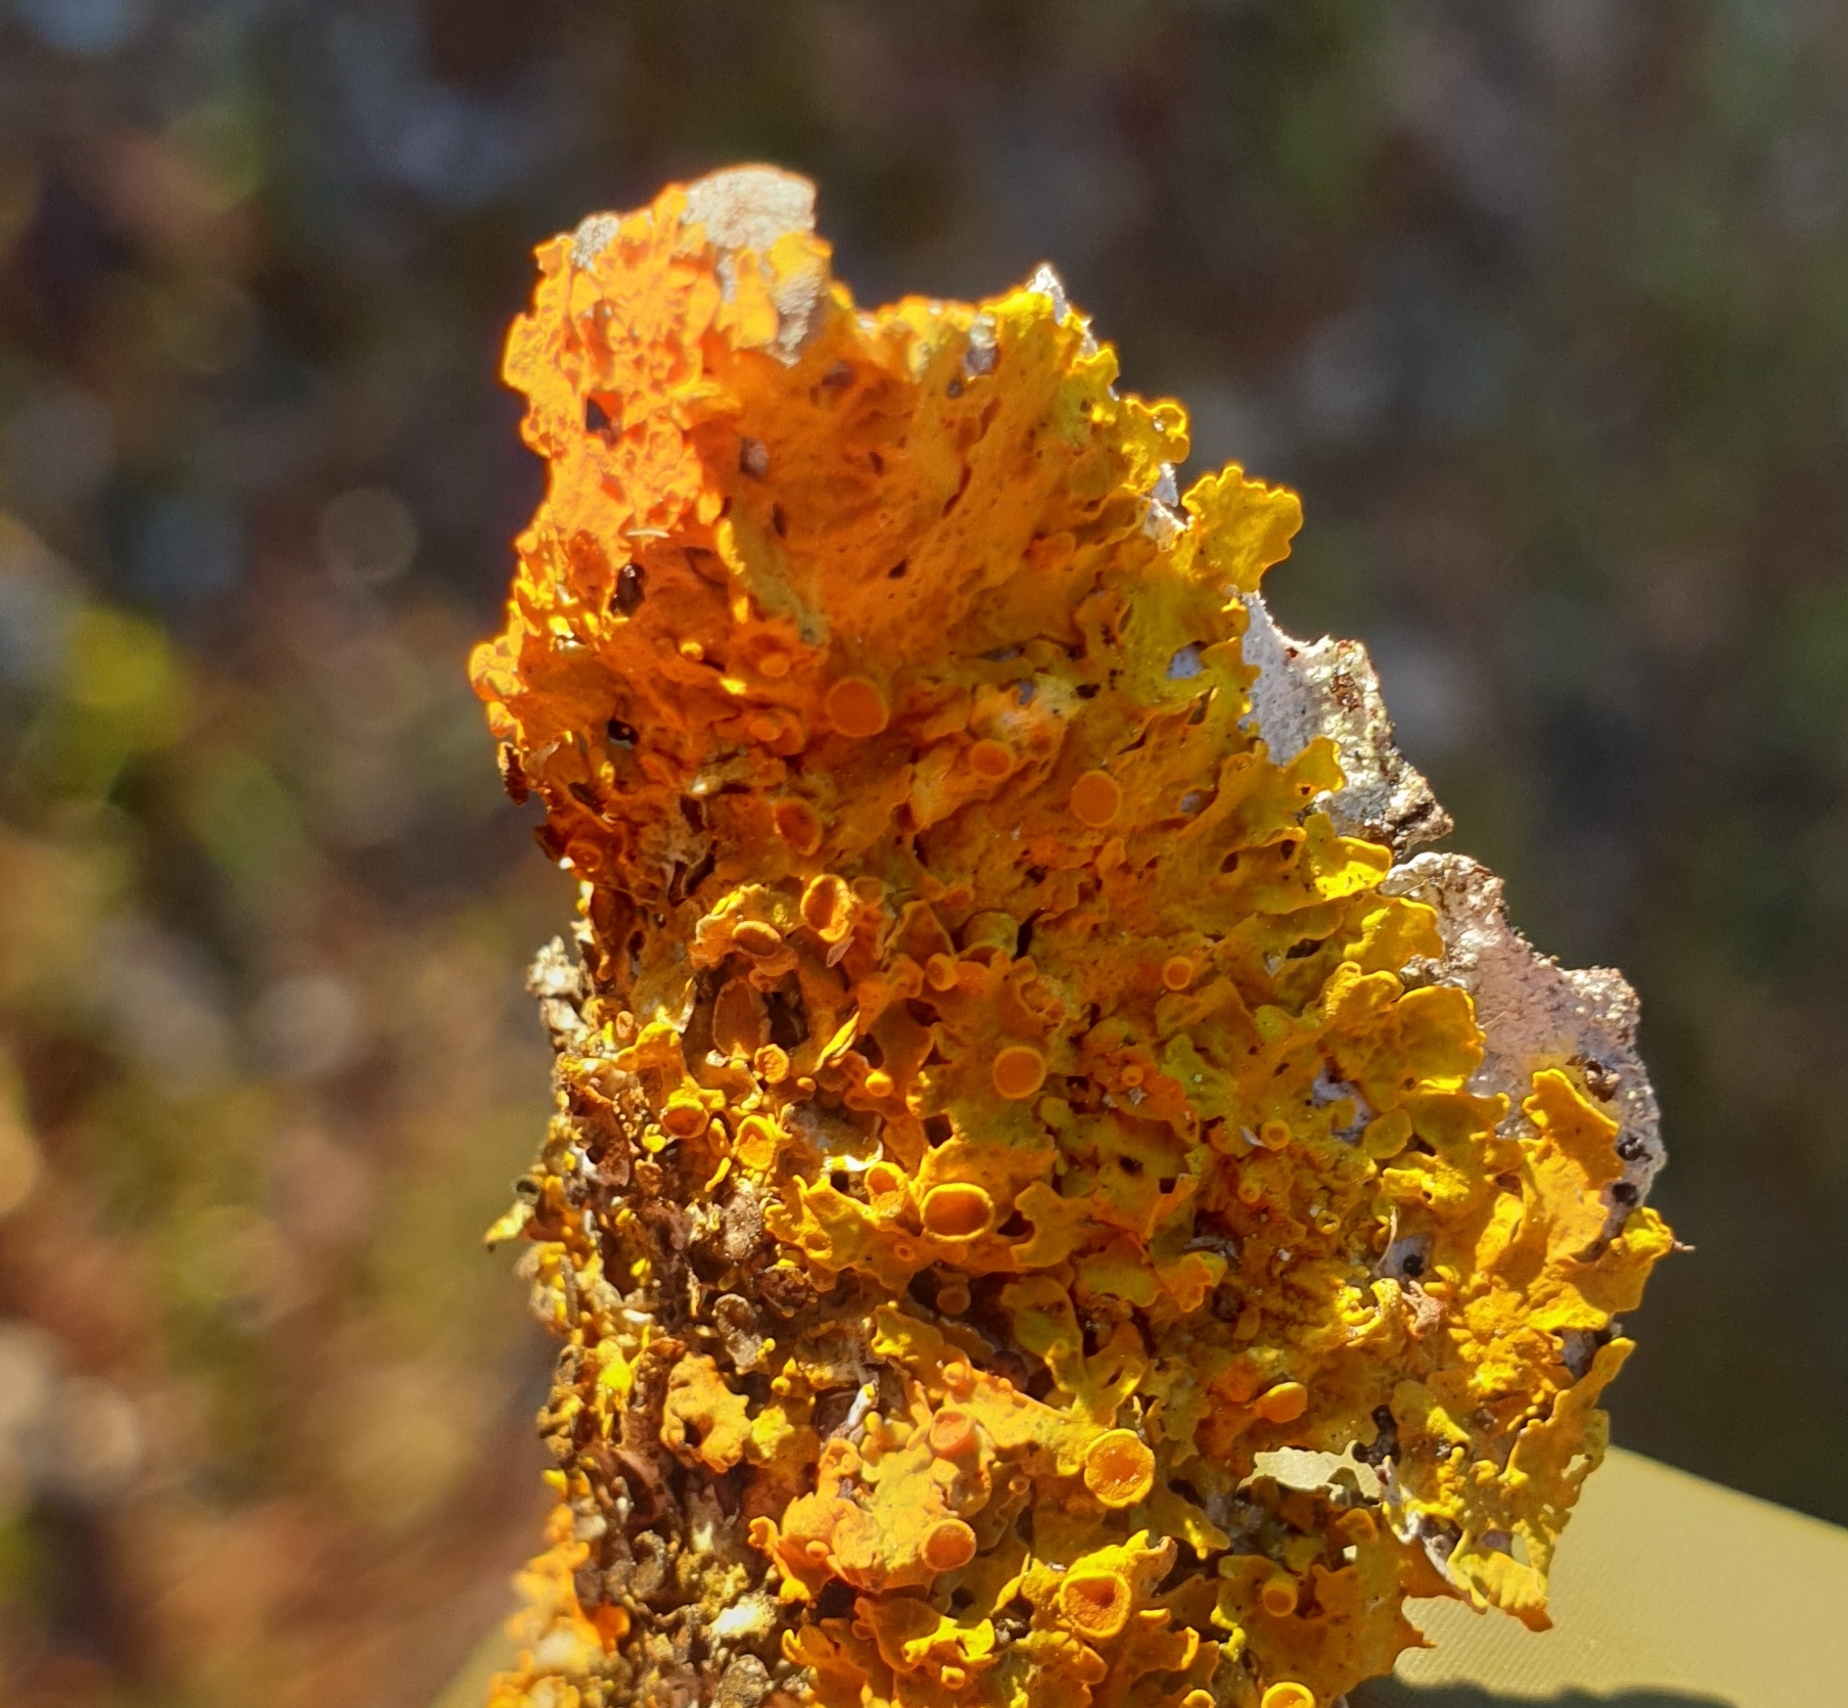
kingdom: Fungi
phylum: Ascomycota
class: Lecanoromycetes
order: Teloschistales
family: Teloschistaceae
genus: Xanthoria
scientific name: Xanthoria parietina
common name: Common orange lichen
